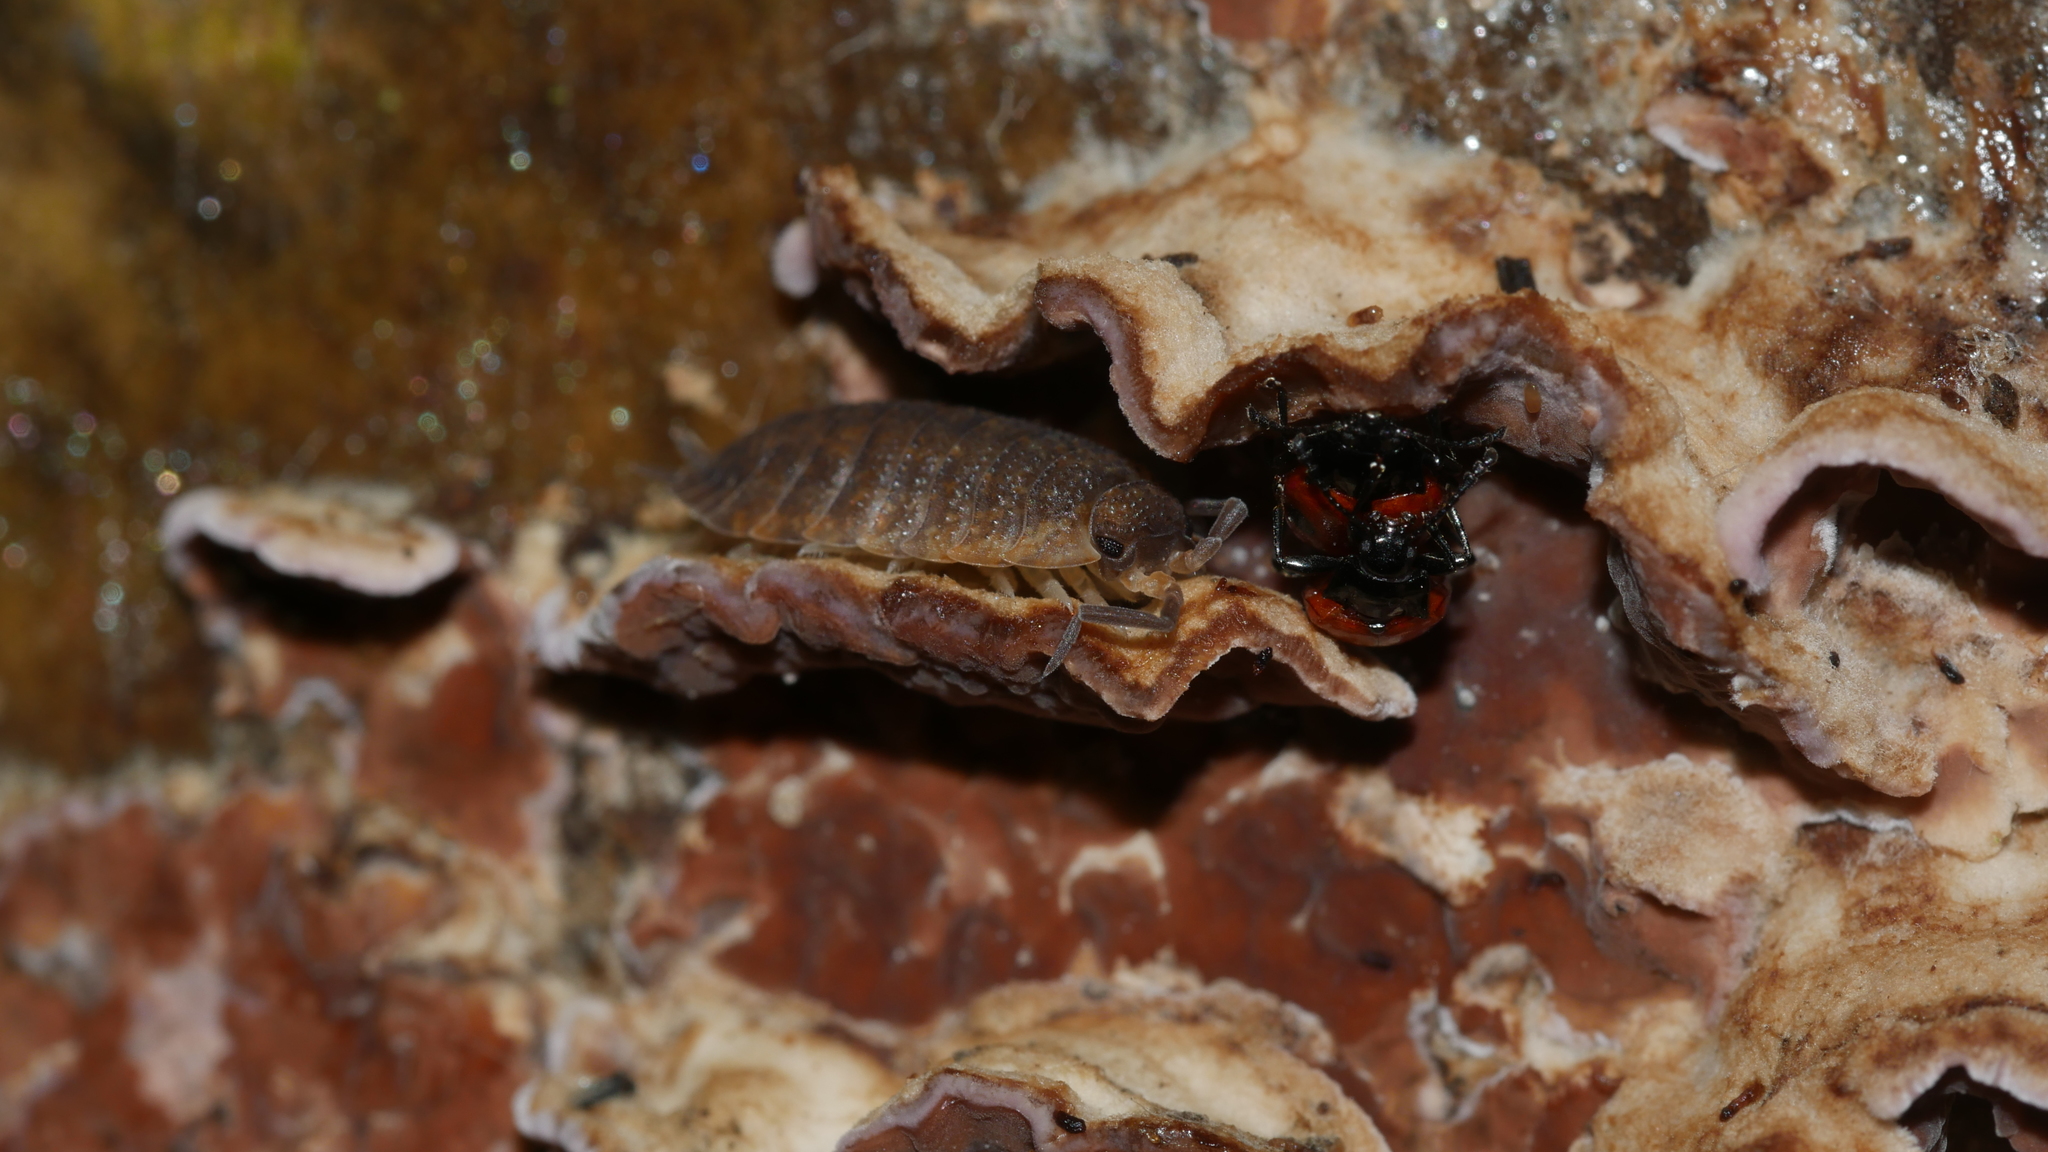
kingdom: Animalia
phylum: Arthropoda
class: Malacostraca
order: Isopoda
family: Porcellionidae
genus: Porcellio
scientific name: Porcellio scaber
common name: Common rough woodlouse
